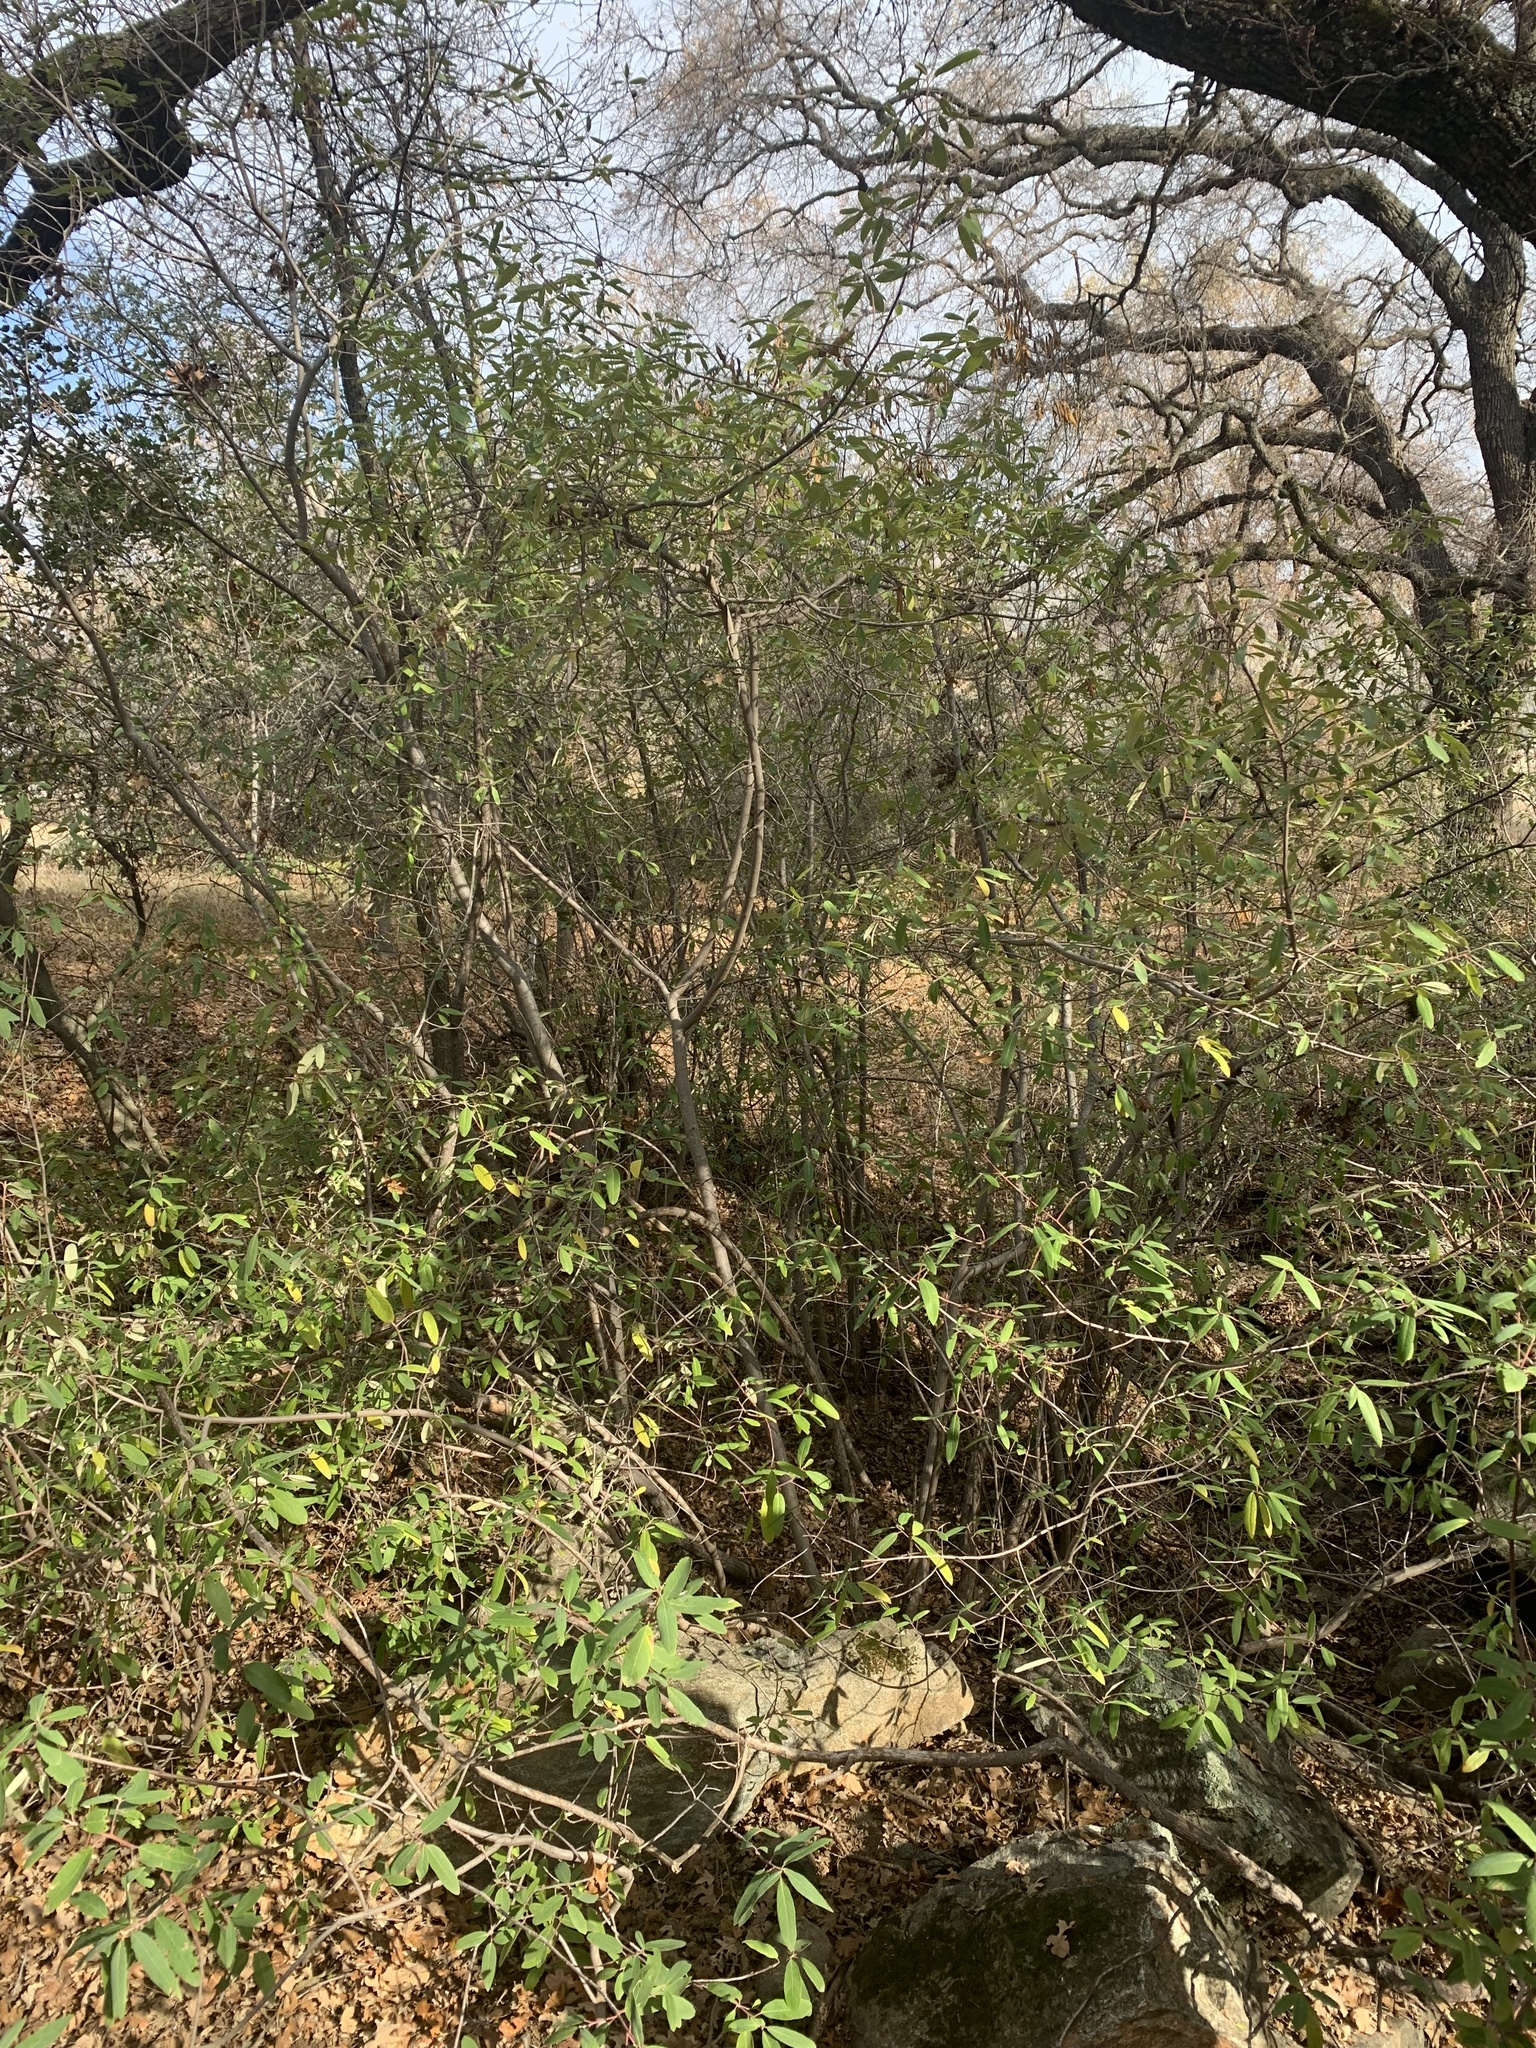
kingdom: Plantae
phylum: Tracheophyta
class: Magnoliopsida
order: Rosales
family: Rhamnaceae
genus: Frangula
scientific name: Frangula californica
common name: California buckthorn
